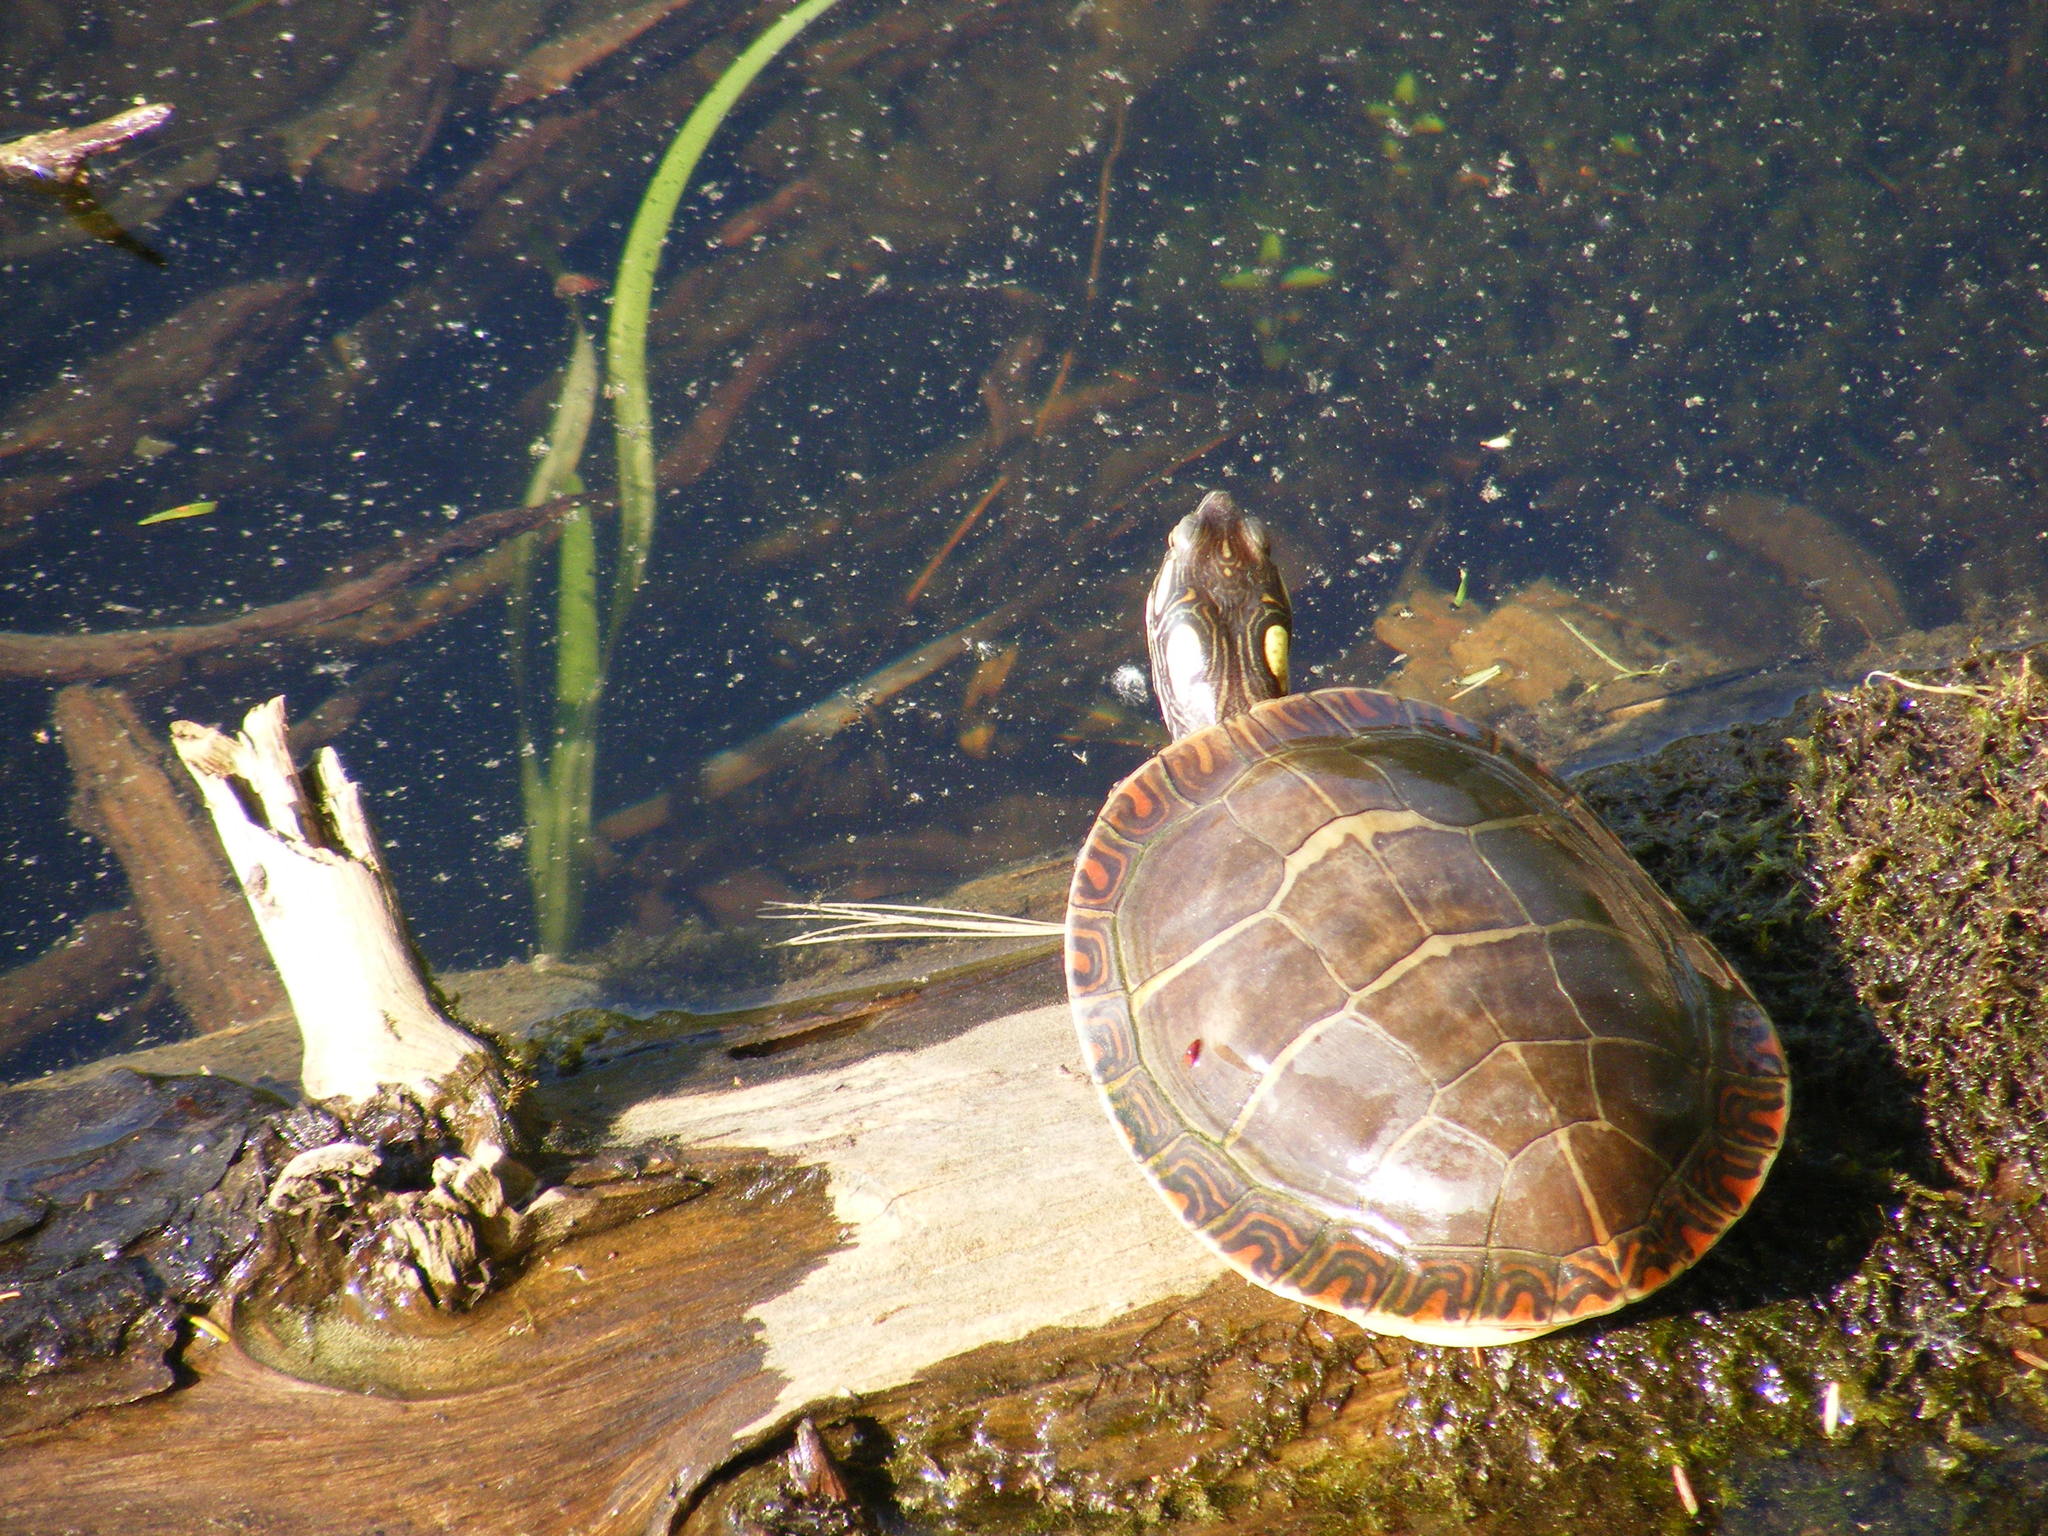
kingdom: Animalia
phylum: Chordata
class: Testudines
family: Emydidae
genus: Chrysemys
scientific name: Chrysemys picta
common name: Painted turtle
